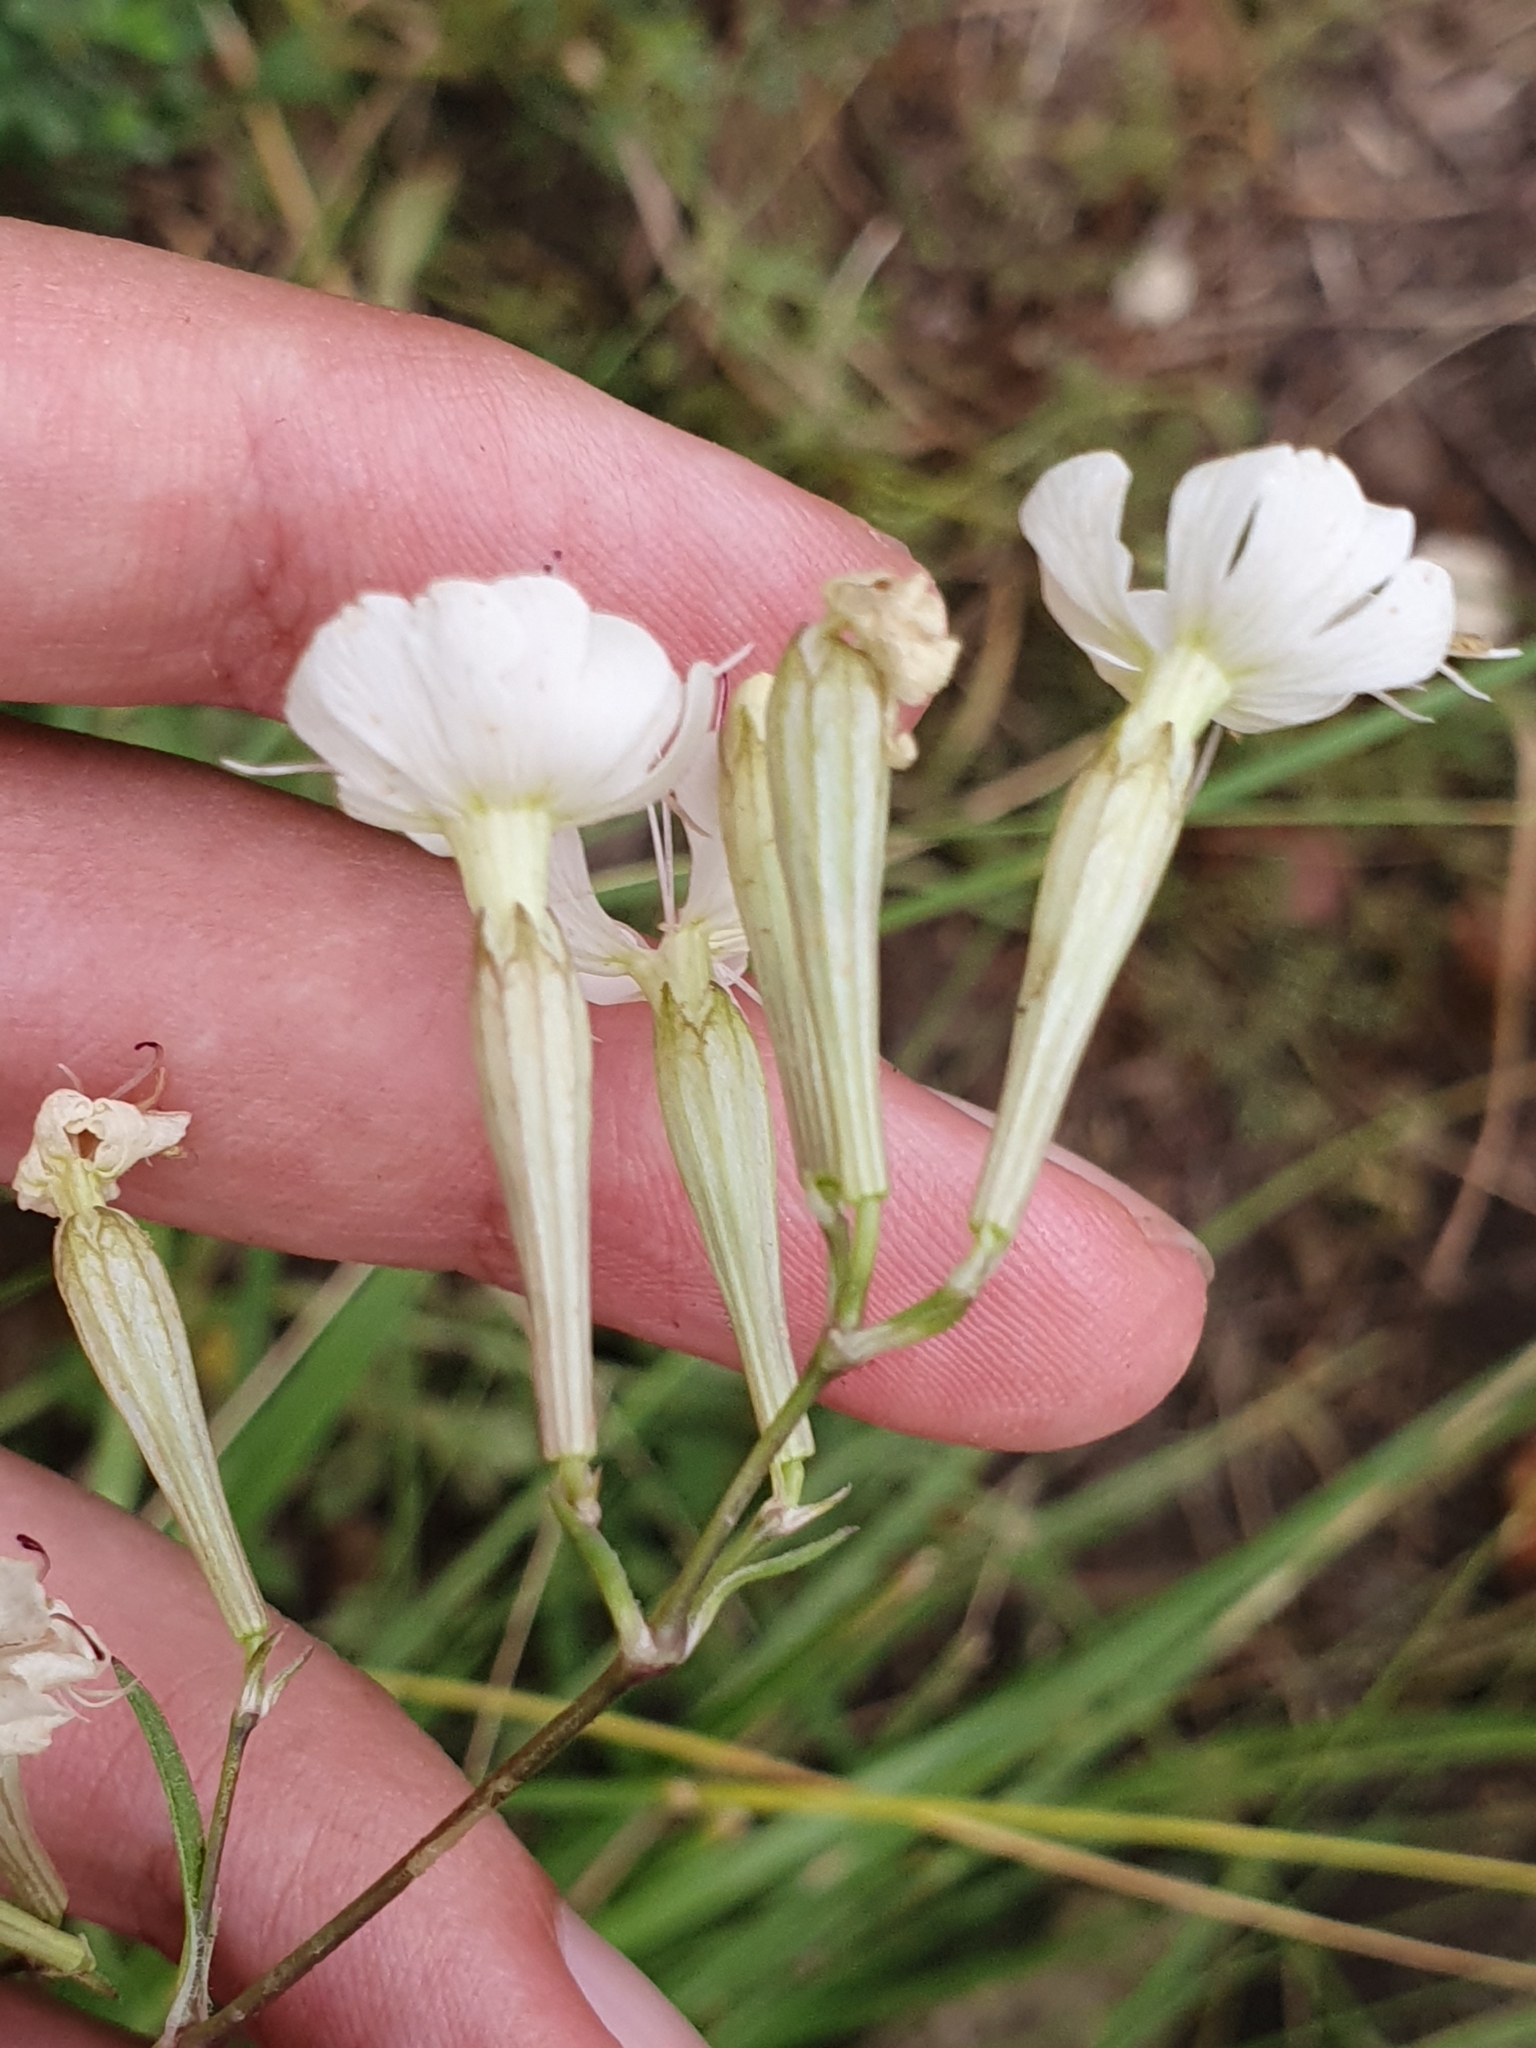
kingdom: Plantae
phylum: Tracheophyta
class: Magnoliopsida
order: Caryophyllales
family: Caryophyllaceae
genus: Silene
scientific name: Silene patula
